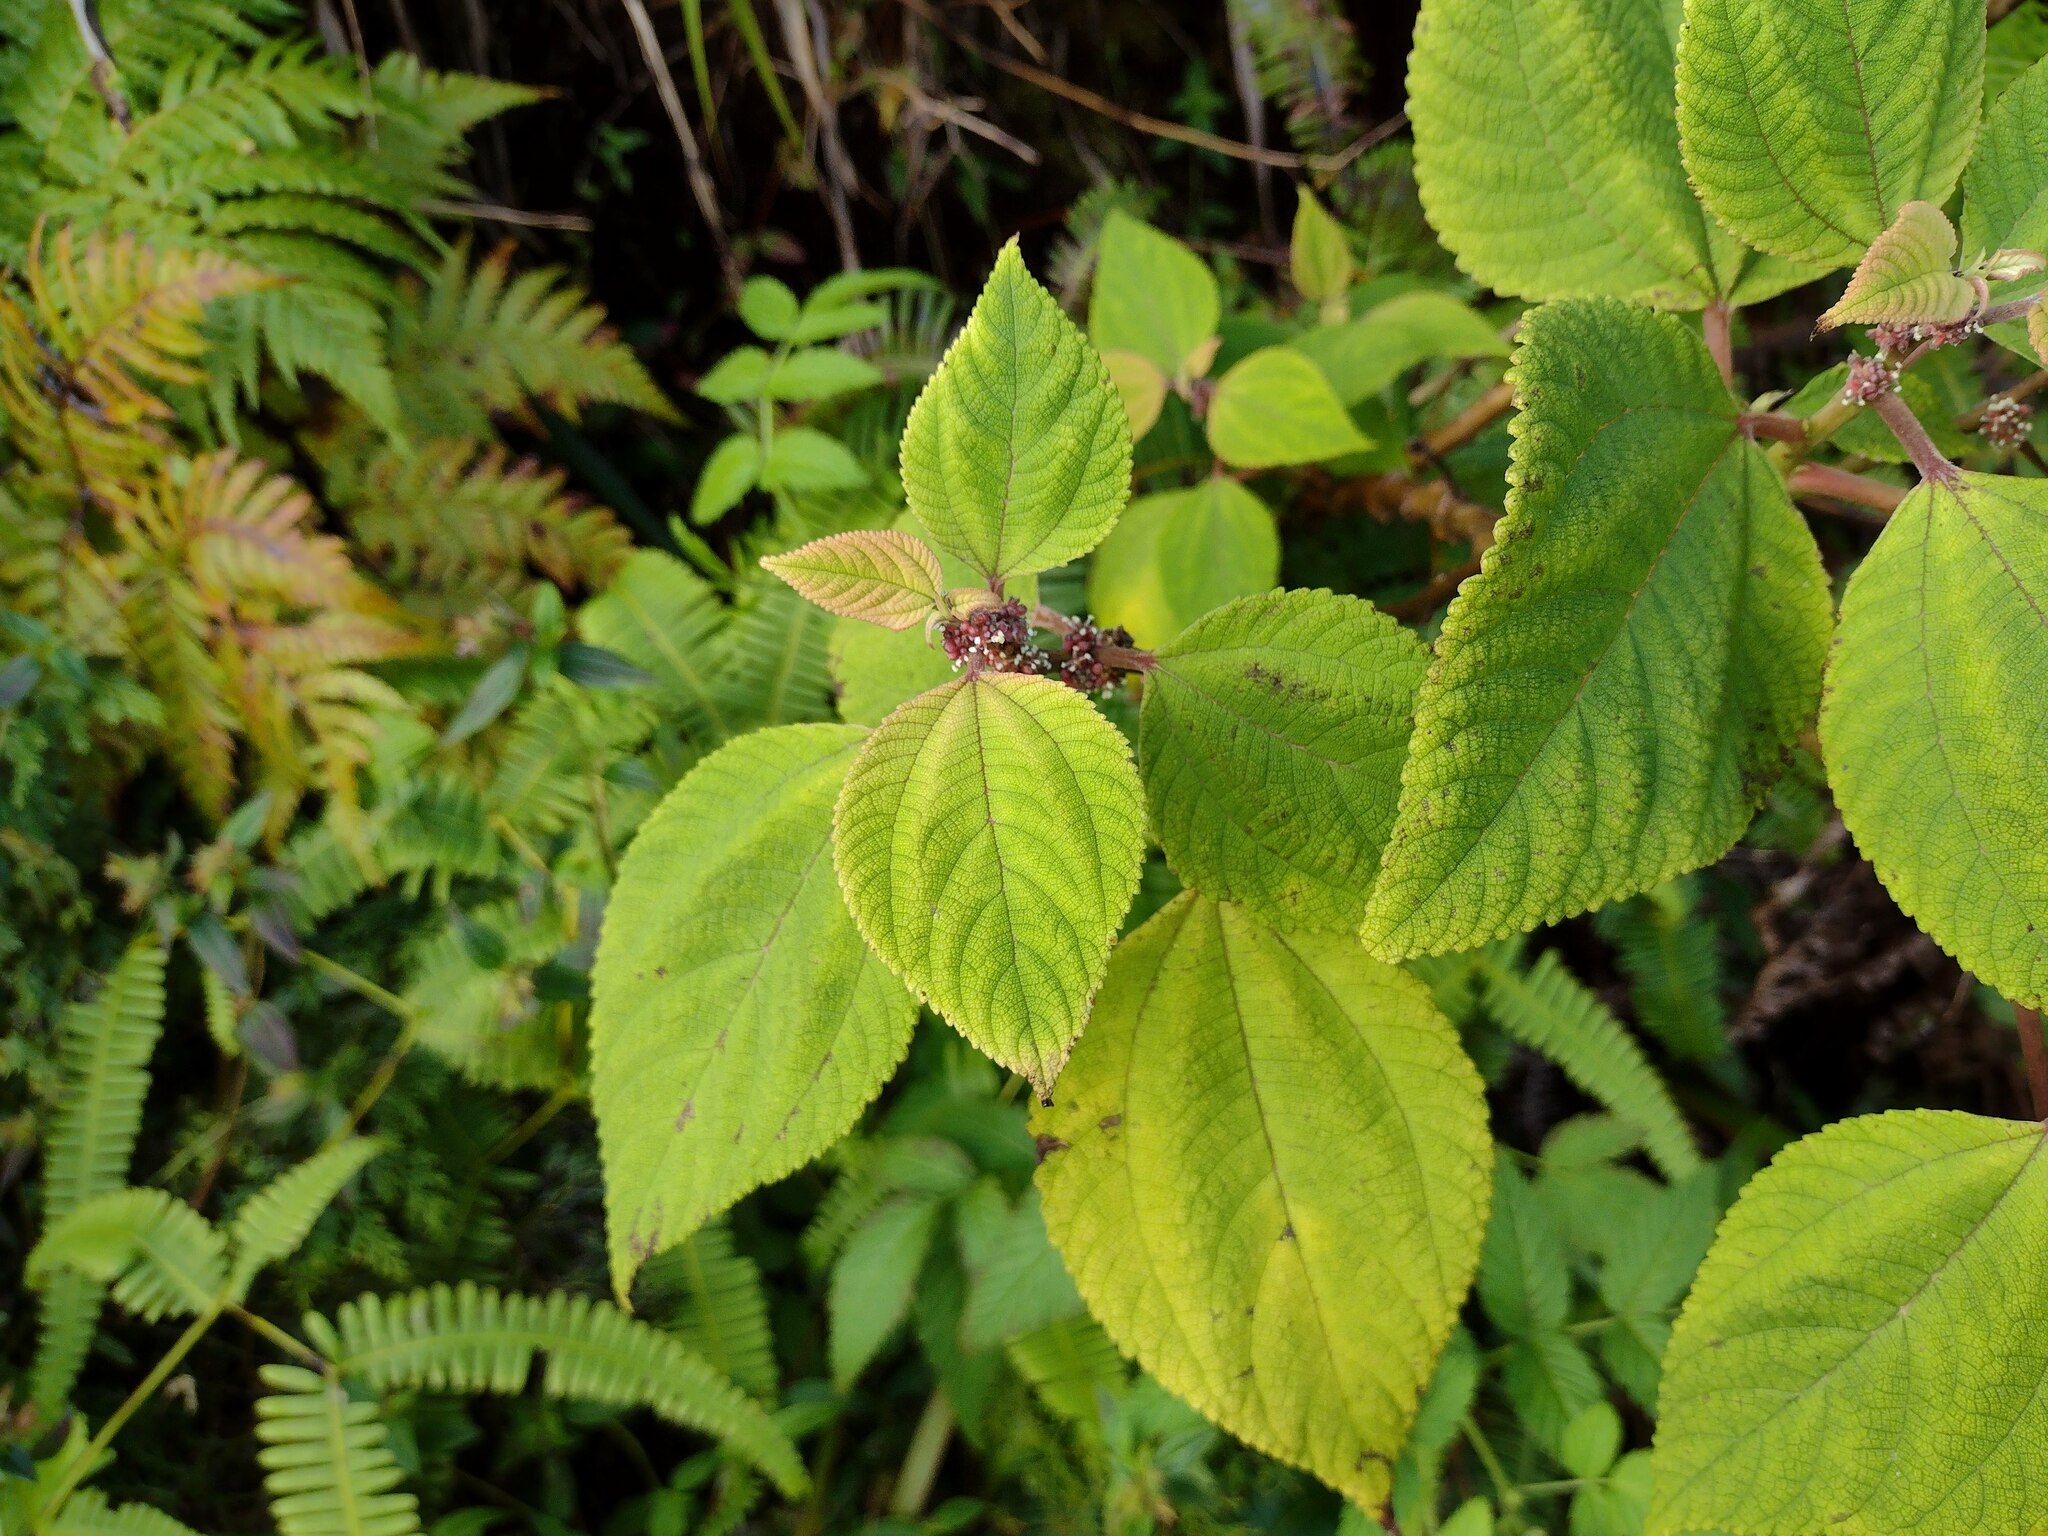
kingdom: Plantae
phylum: Tracheophyta
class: Magnoliopsida
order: Rosales
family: Urticaceae
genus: Pipturus
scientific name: Pipturus albidus
